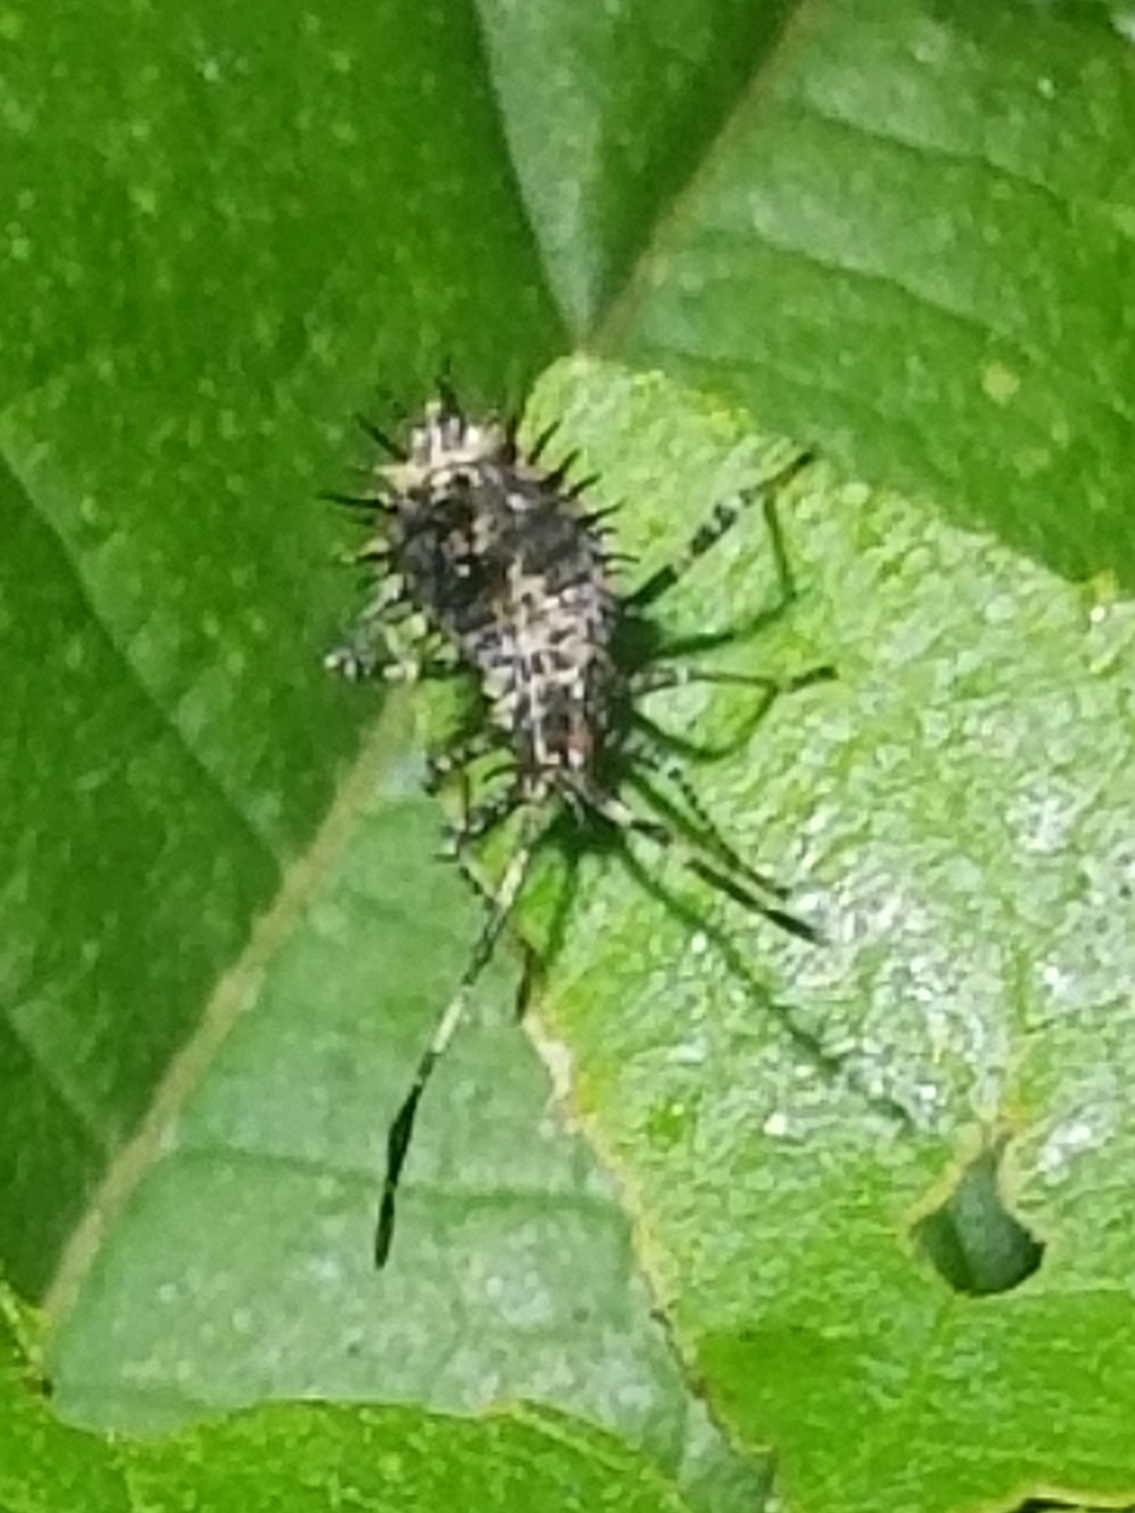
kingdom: Animalia
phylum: Arthropoda
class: Insecta
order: Hemiptera
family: Coreidae
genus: Euthochtha
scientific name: Euthochtha galeator
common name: Helmeted squash bug
